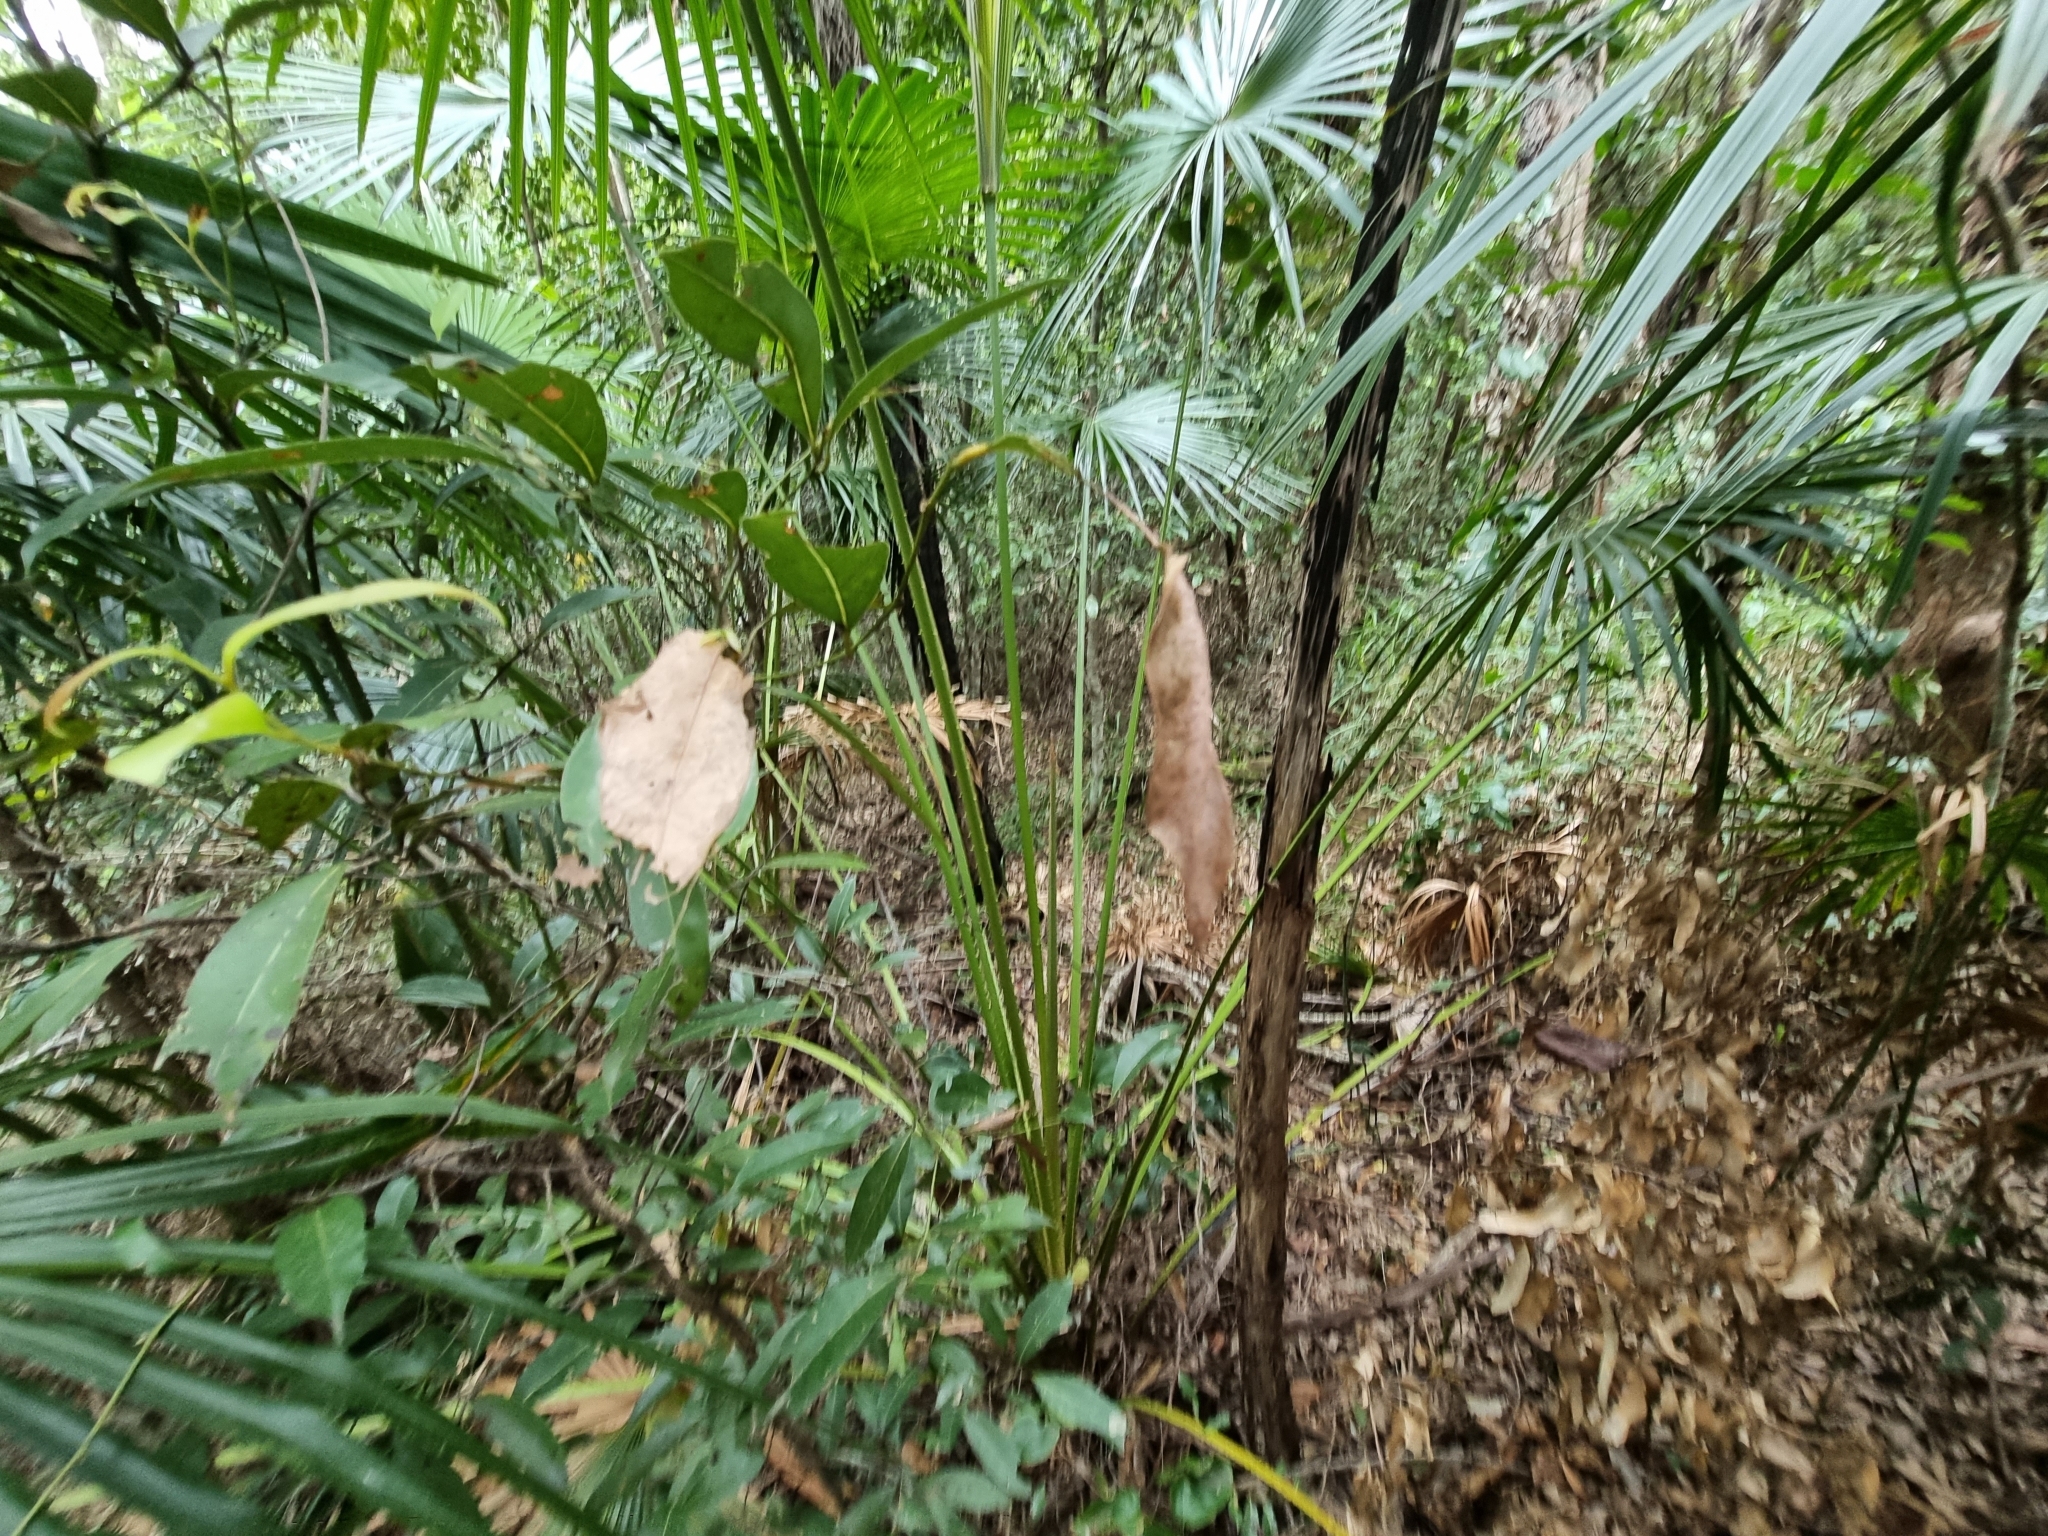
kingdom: Plantae
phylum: Tracheophyta
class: Liliopsida
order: Arecales
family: Arecaceae
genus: Livistona
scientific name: Livistona australis
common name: Cabbage fan palm
